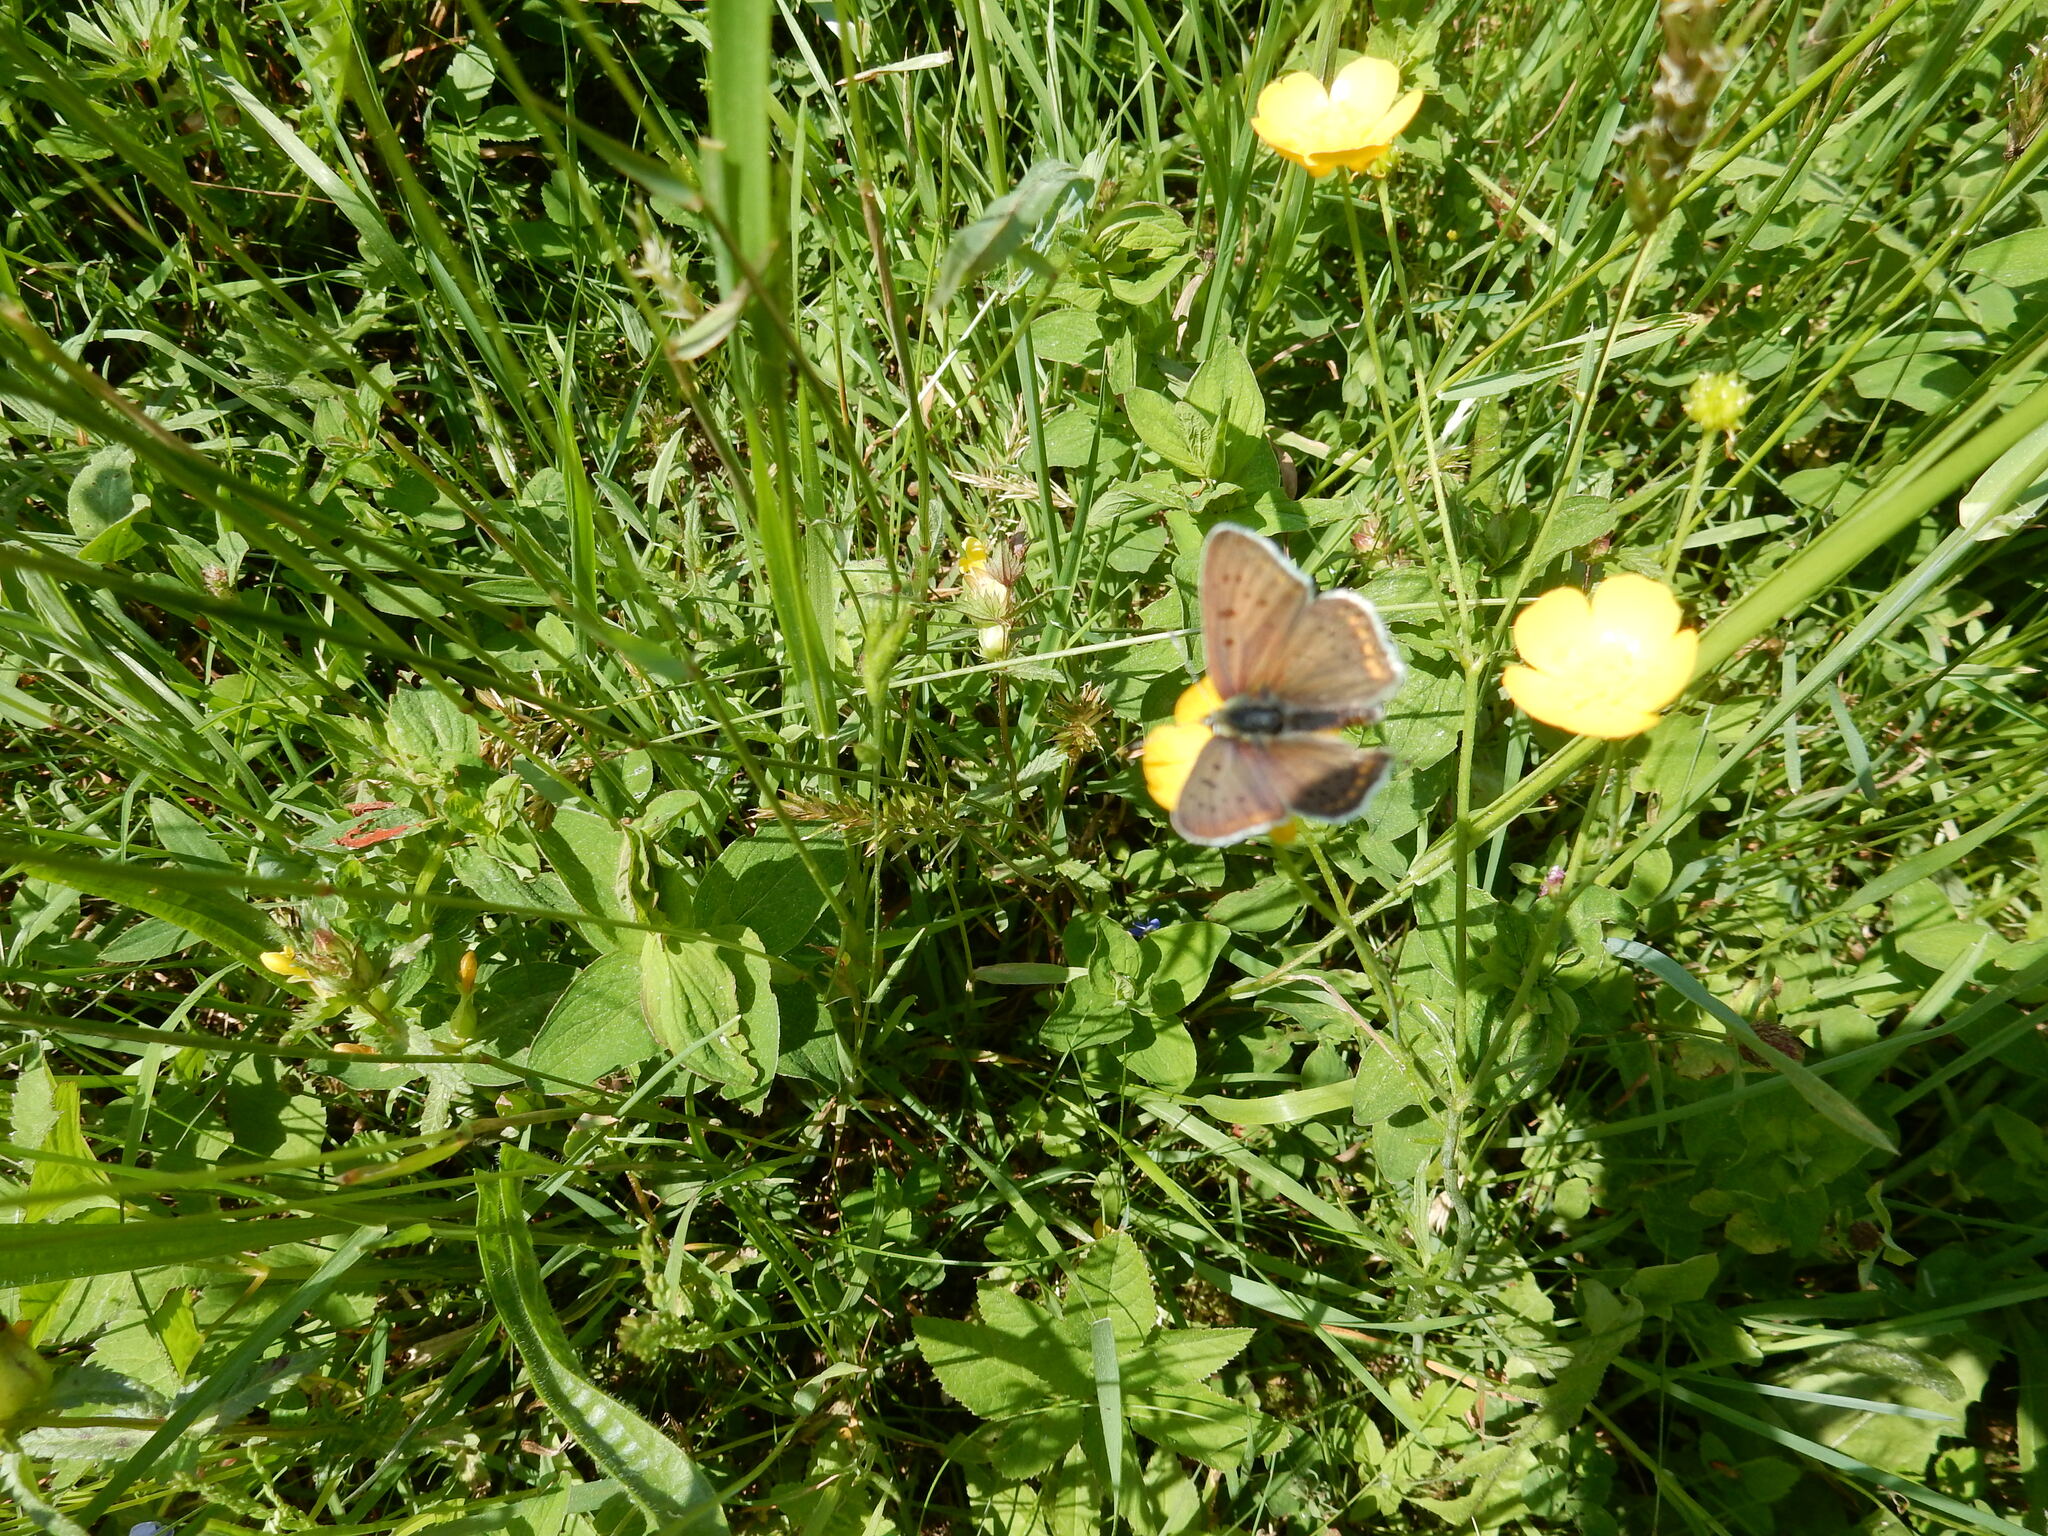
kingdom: Animalia
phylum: Arthropoda
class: Insecta
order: Lepidoptera
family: Lycaenidae
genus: Loweia
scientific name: Loweia tityrus
